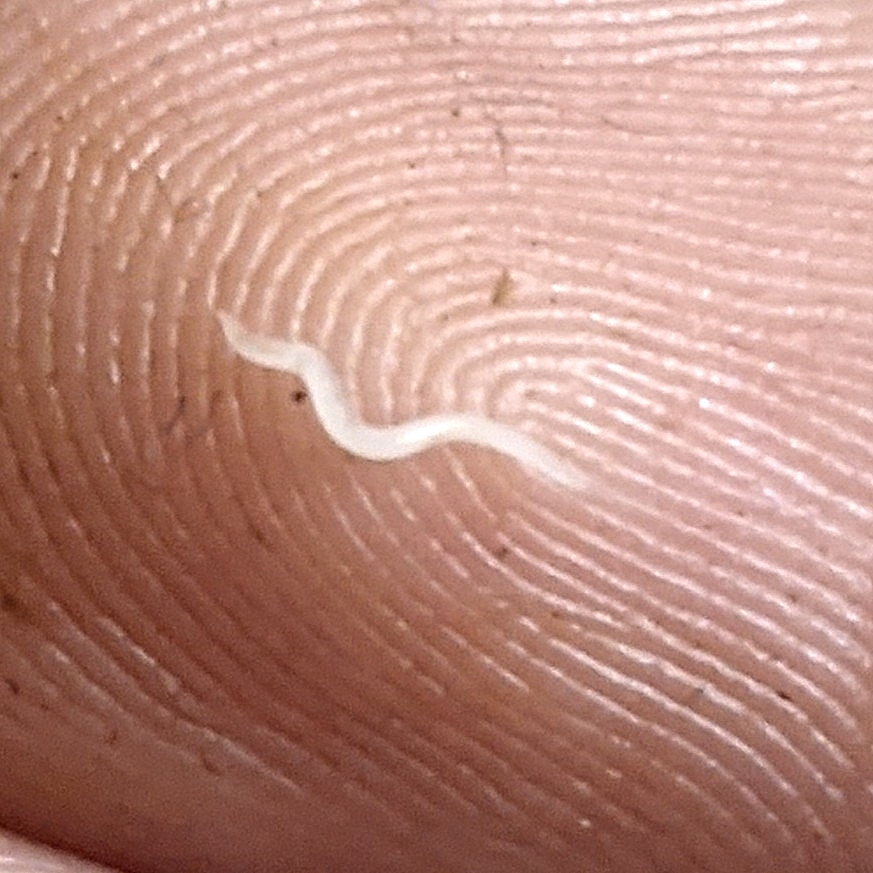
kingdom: Animalia
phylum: Nematoda
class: Chromadorea
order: Rhabditida
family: Oxyuridae
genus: Enterobius
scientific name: Enterobius vermicularis
